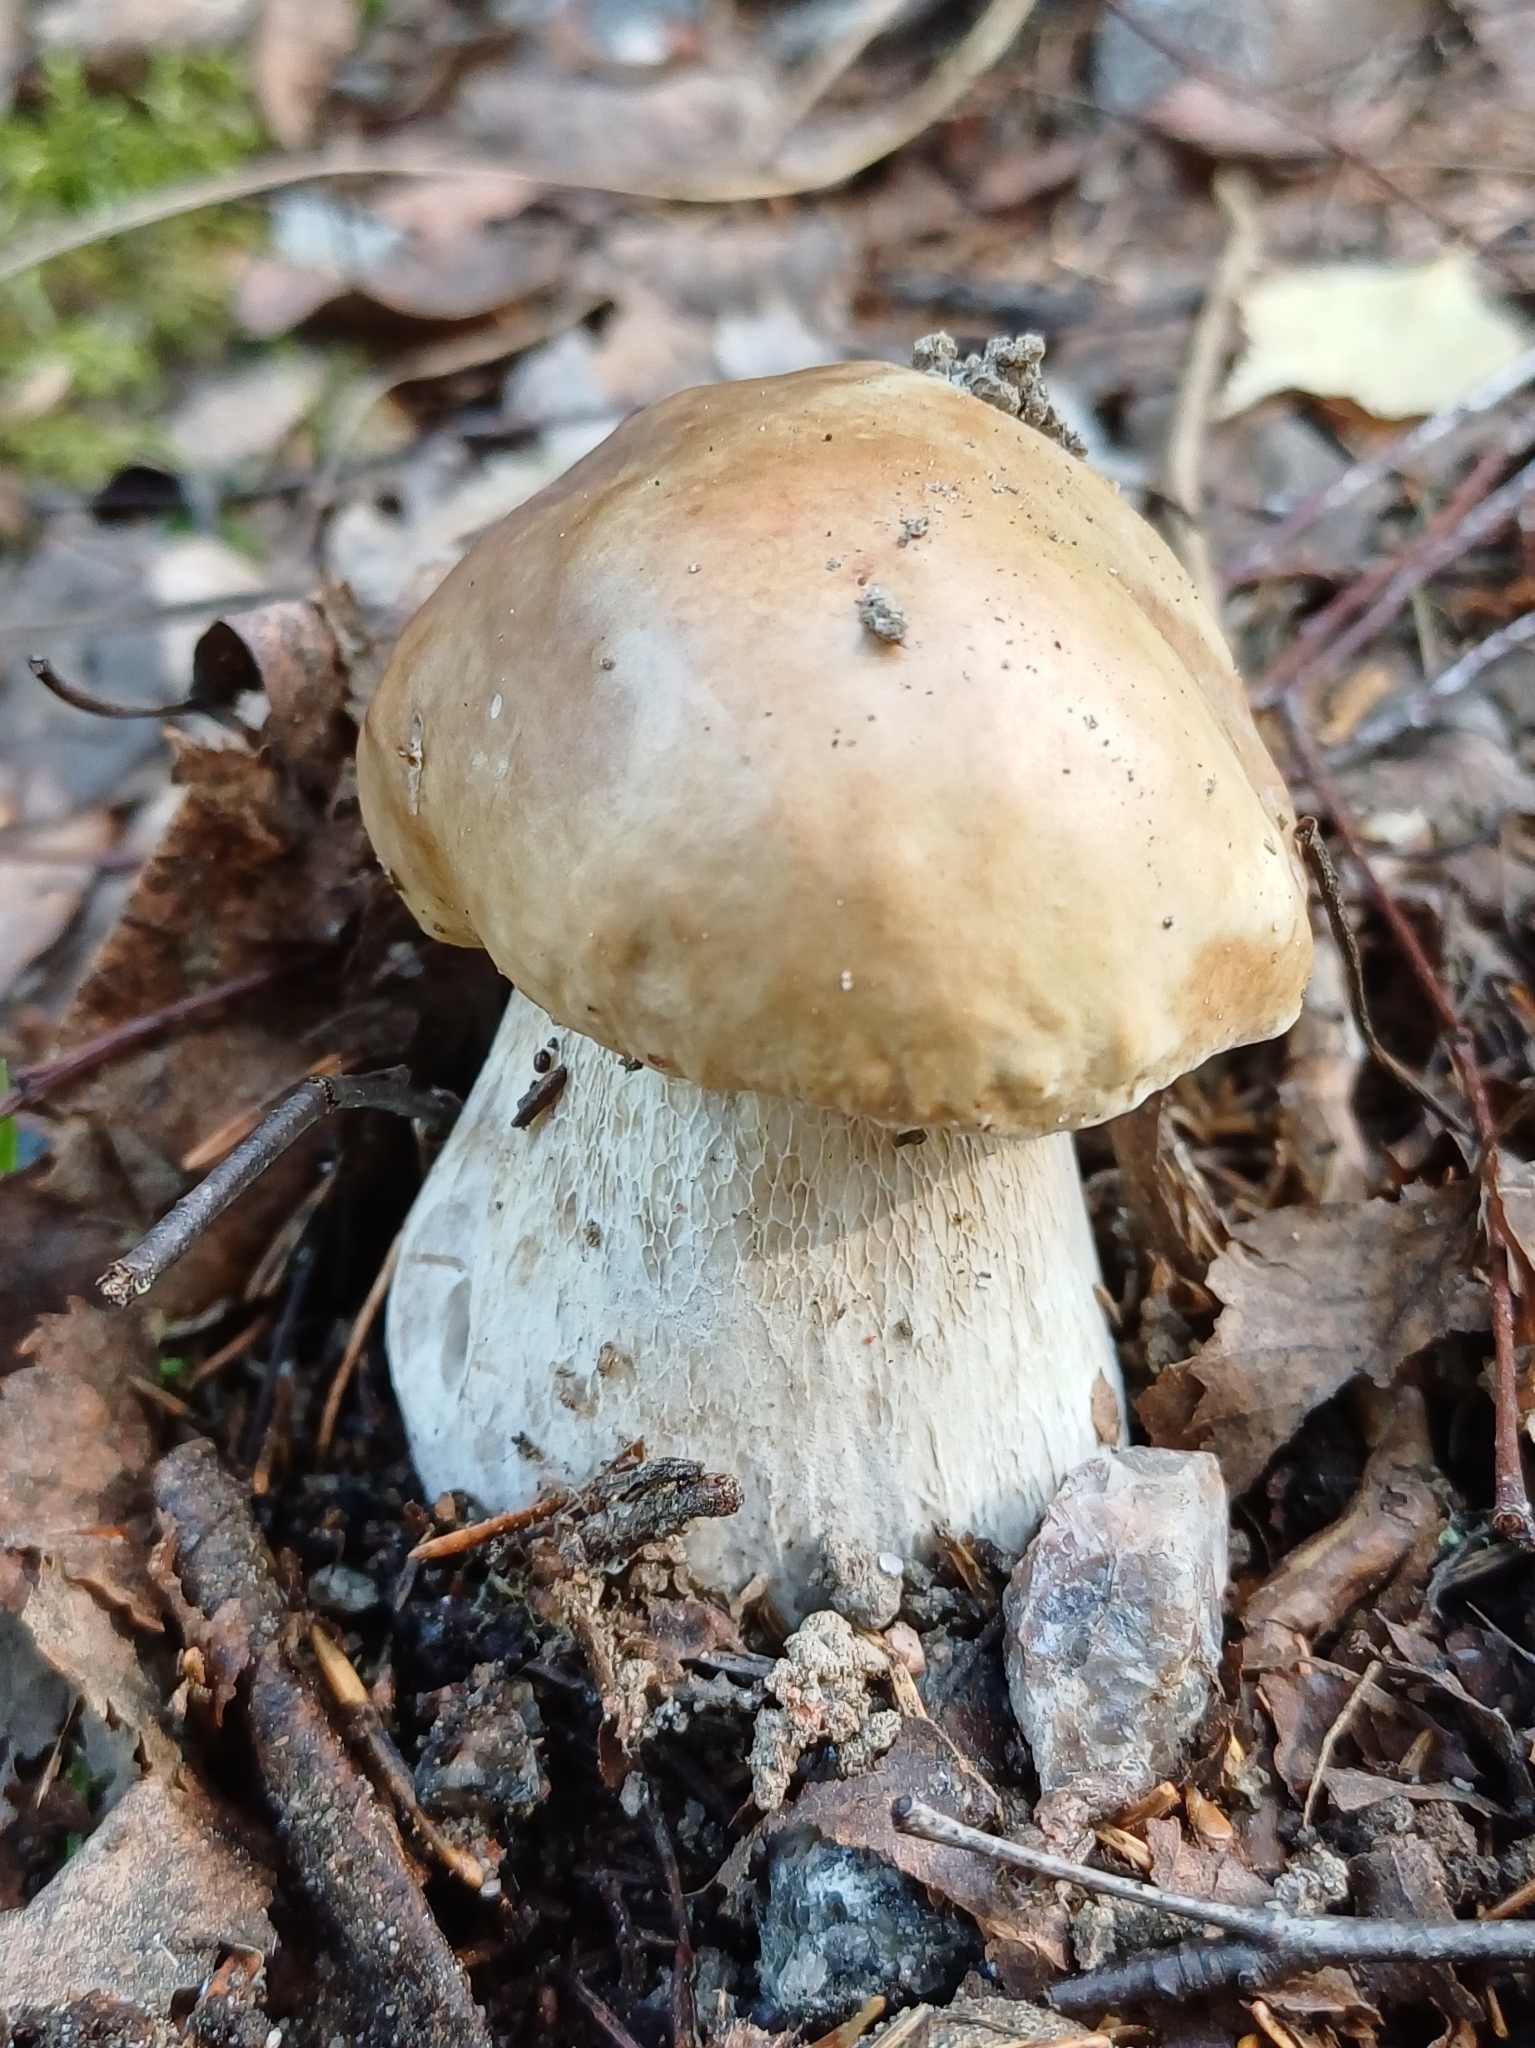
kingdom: Fungi
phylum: Basidiomycota
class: Agaricomycetes
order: Boletales
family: Boletaceae
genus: Boletus
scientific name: Boletus edulis
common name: Cep
